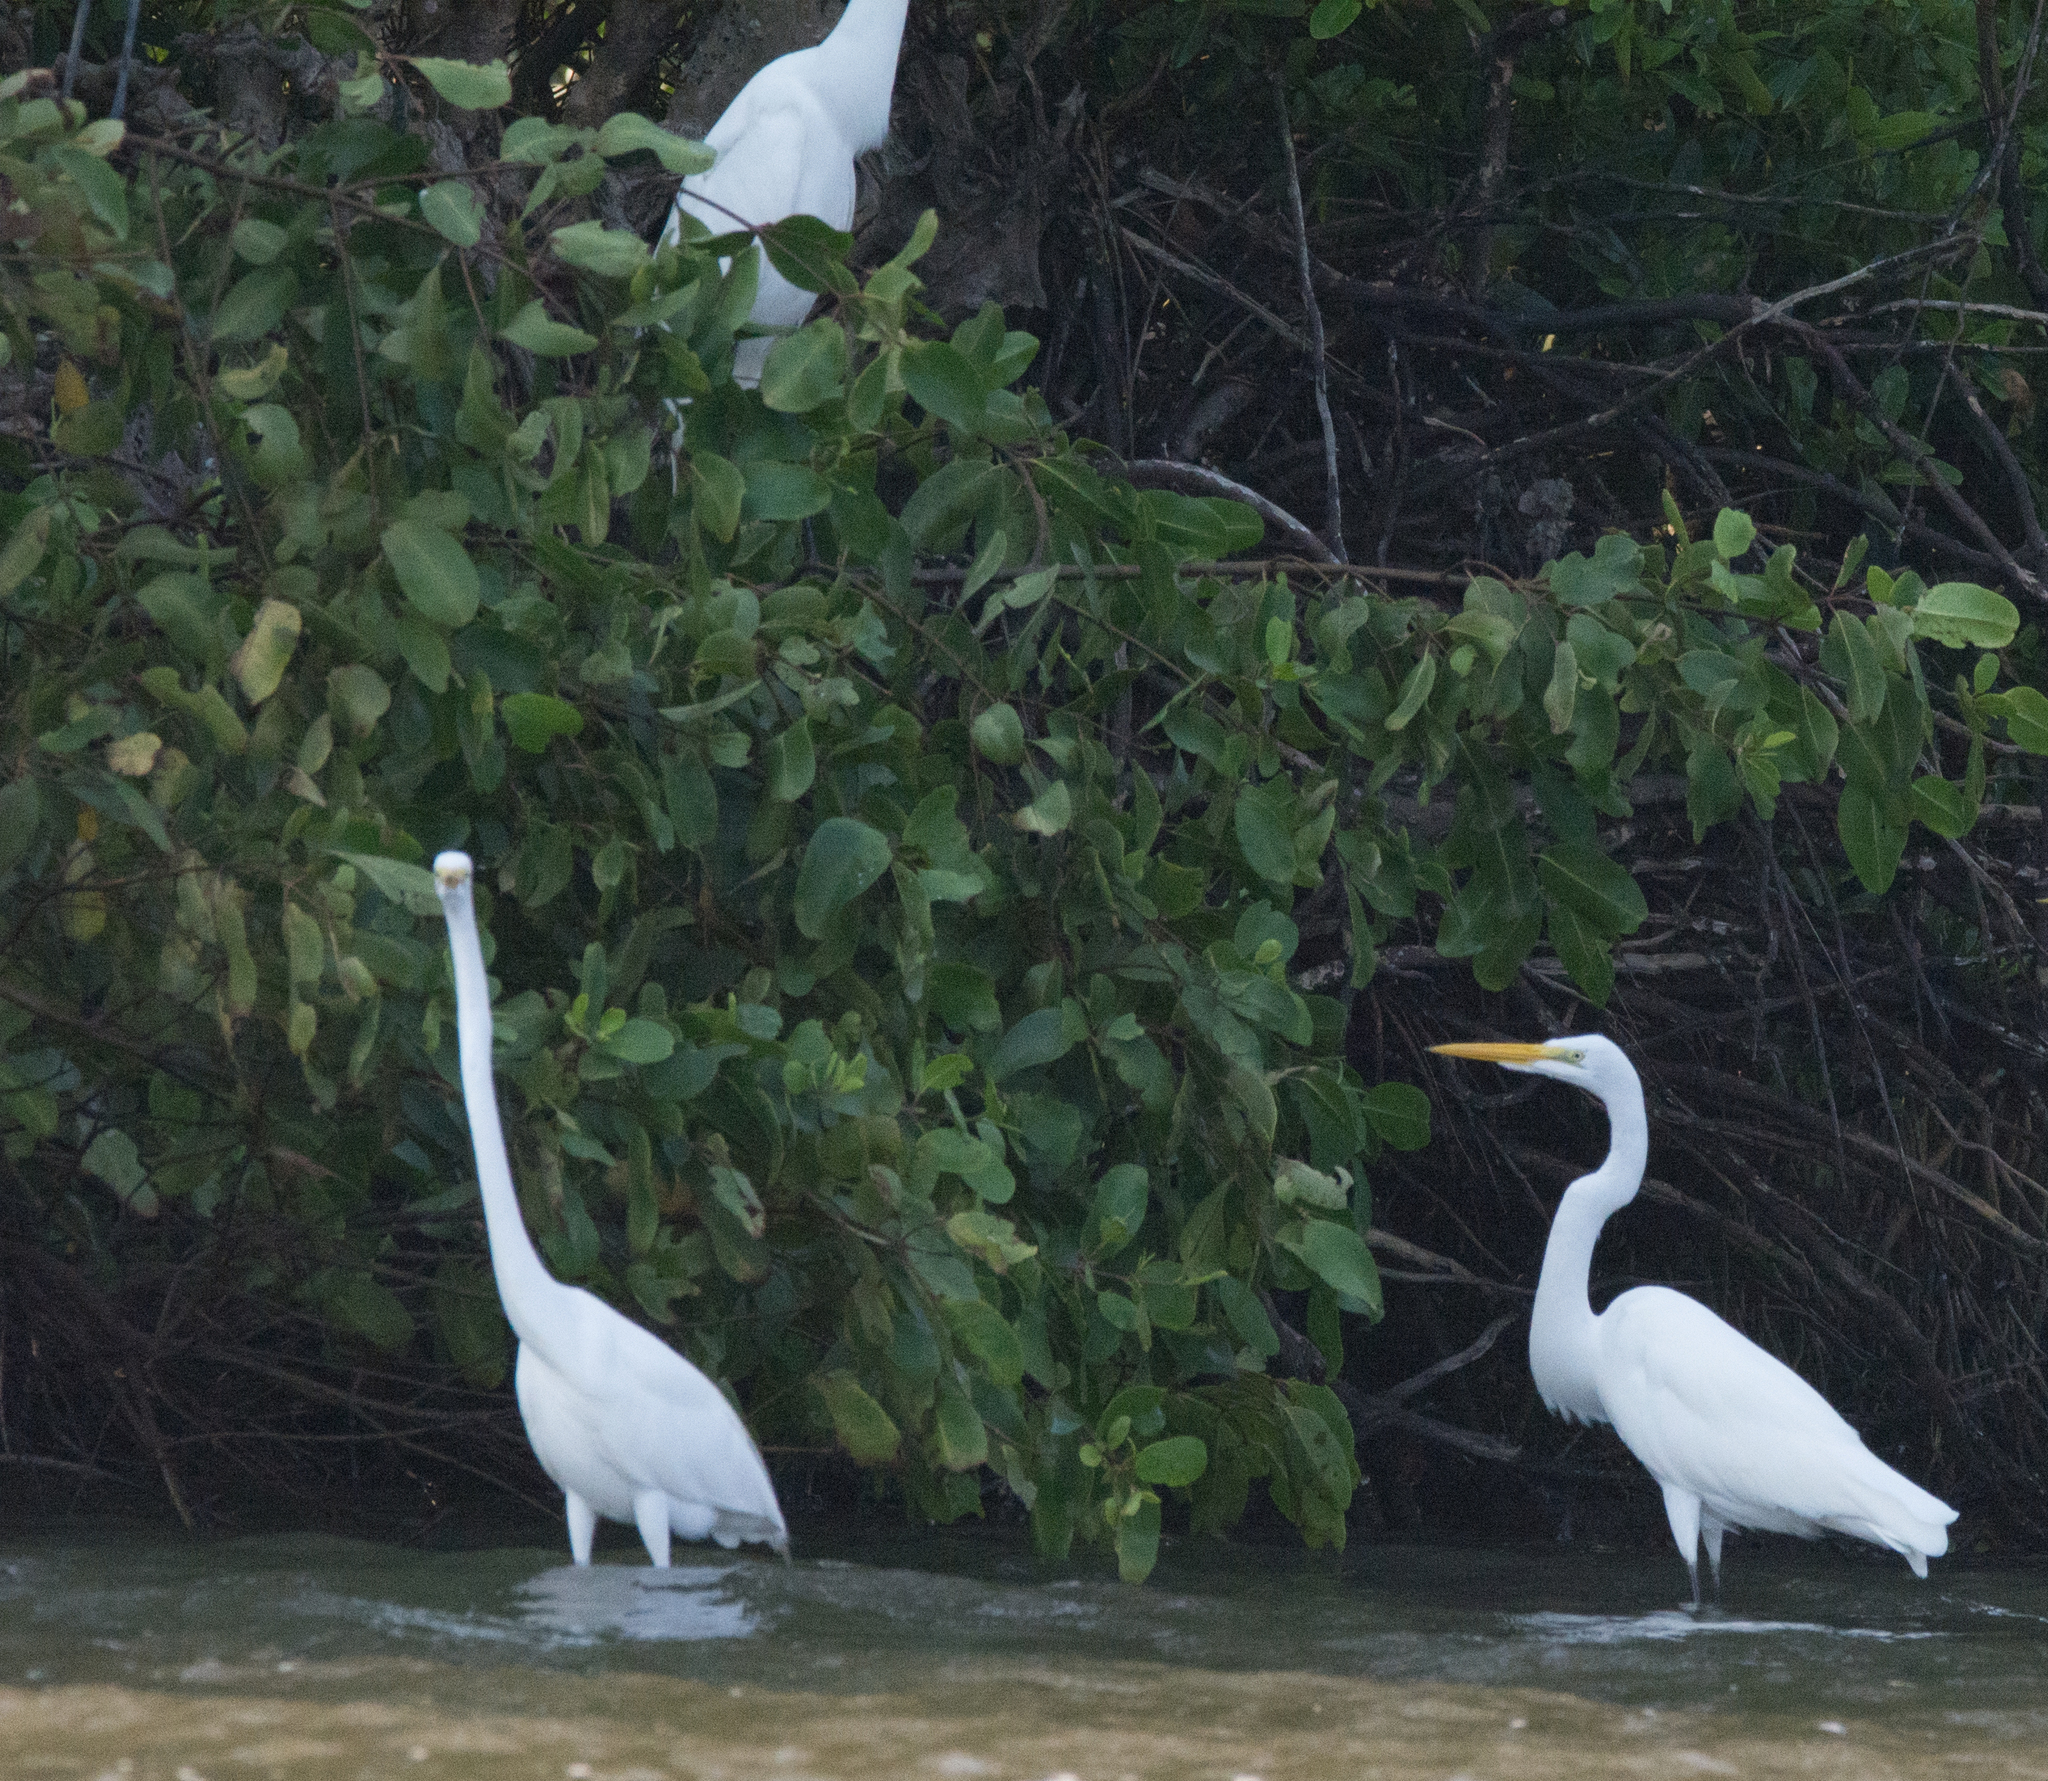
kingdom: Animalia
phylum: Chordata
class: Aves
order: Pelecaniformes
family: Ardeidae
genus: Ardea
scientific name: Ardea alba
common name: Great egret
